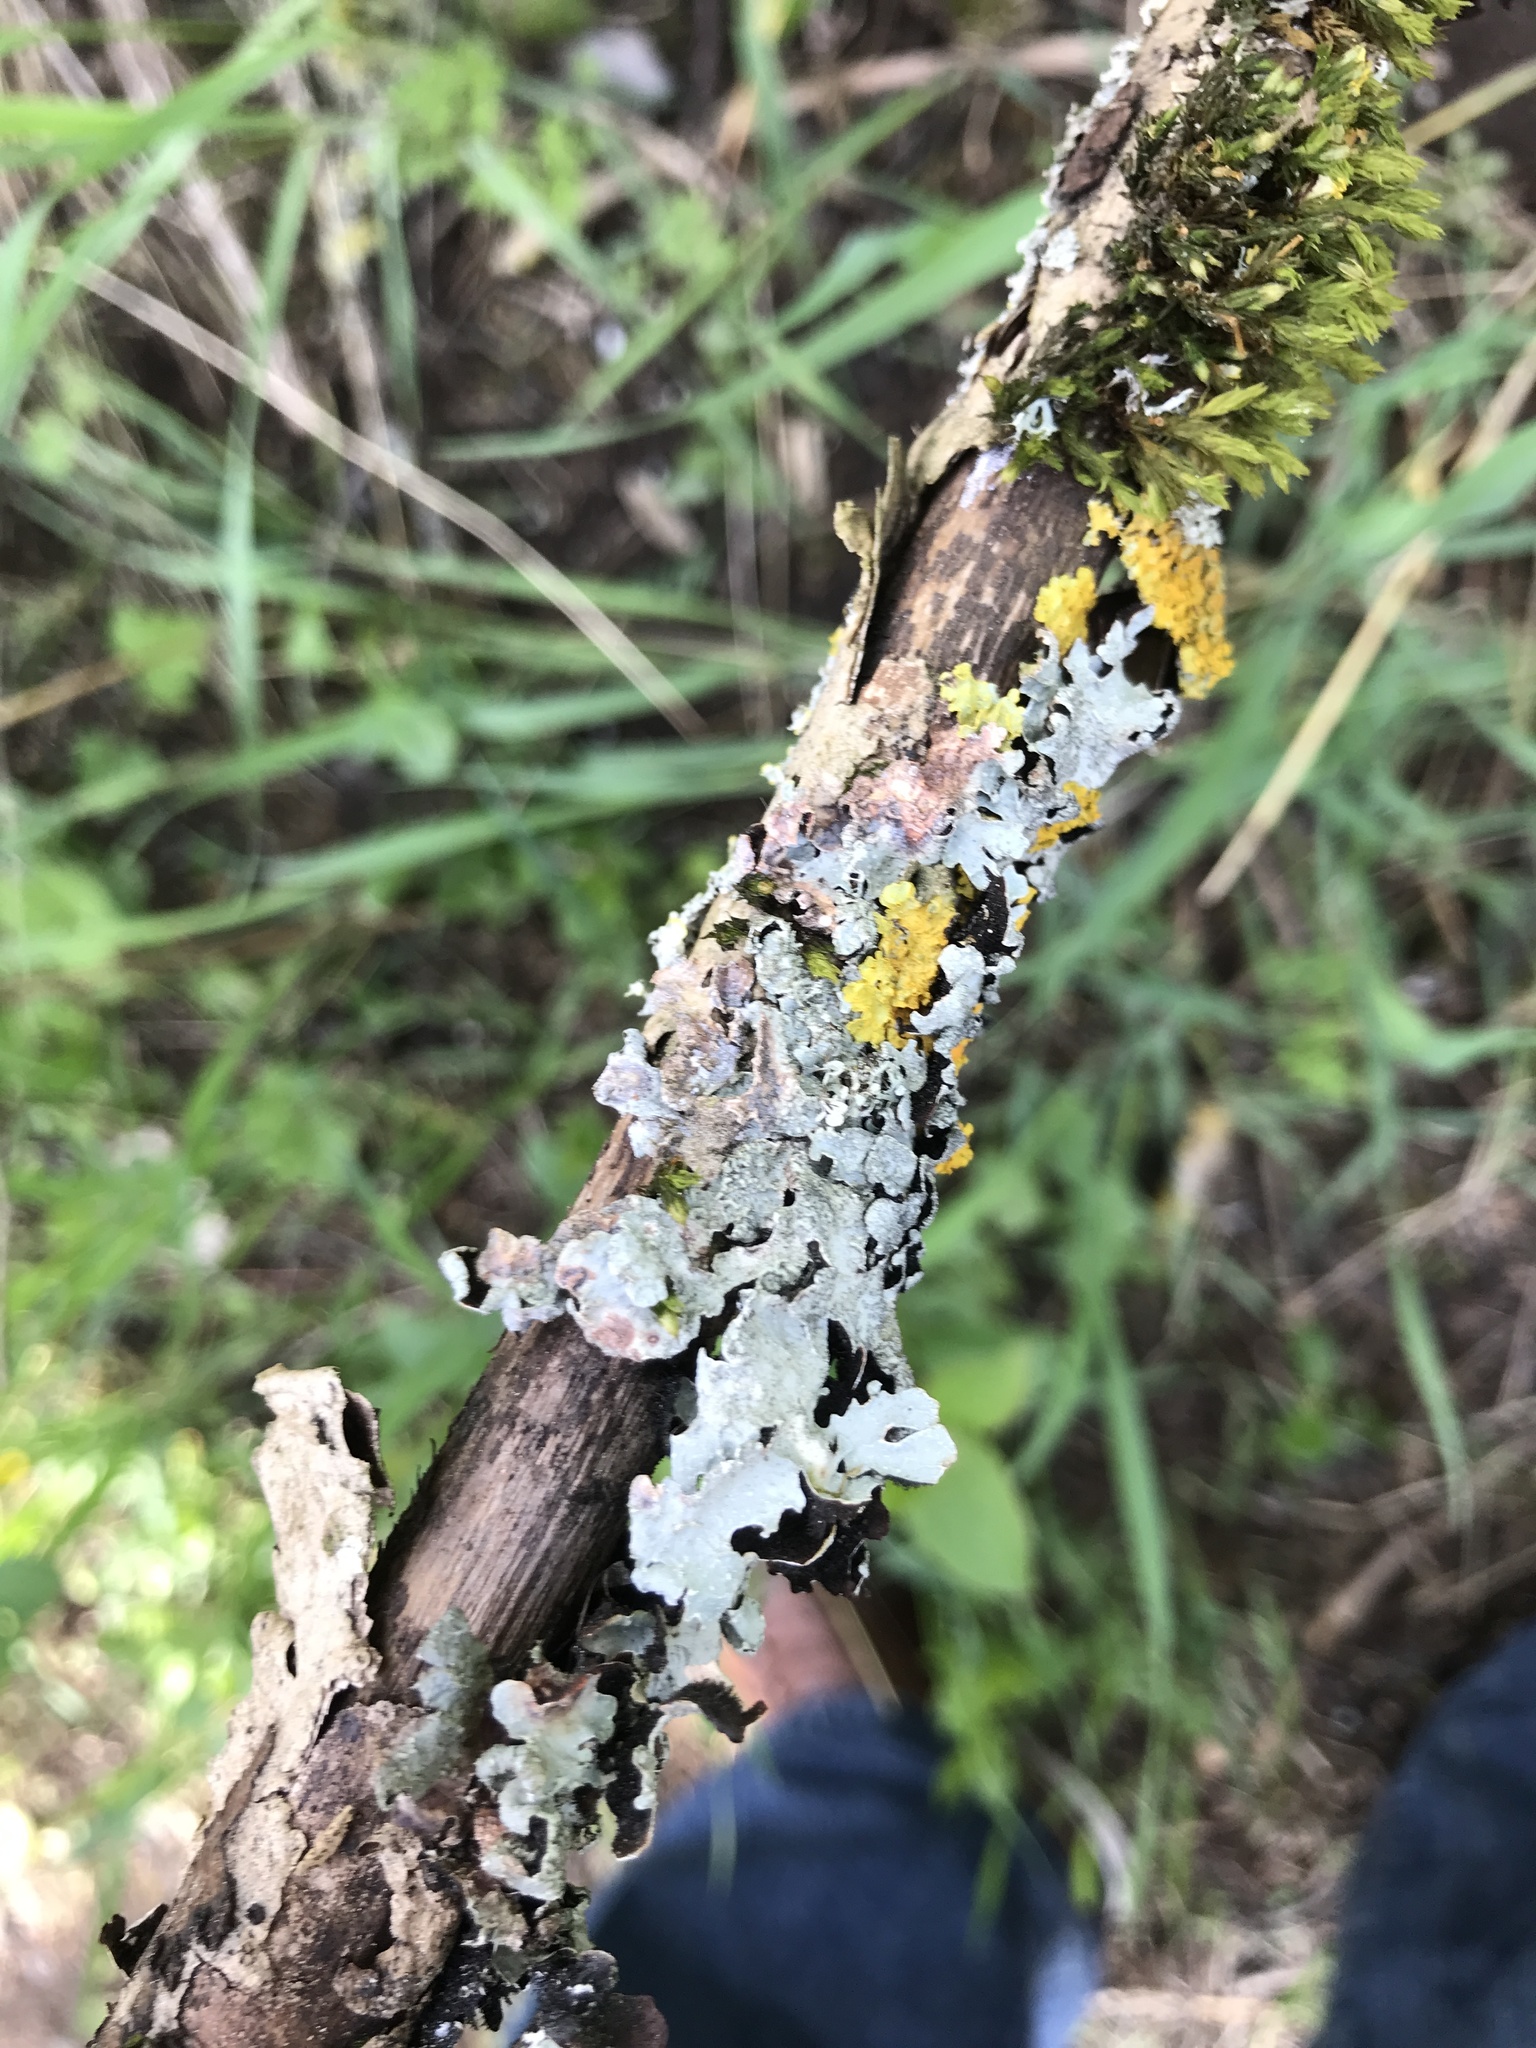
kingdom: Fungi
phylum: Ascomycota
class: Lecanoromycetes
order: Lecanorales
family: Parmeliaceae
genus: Parmelia
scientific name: Parmelia sulcata
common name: Netted shield lichen
